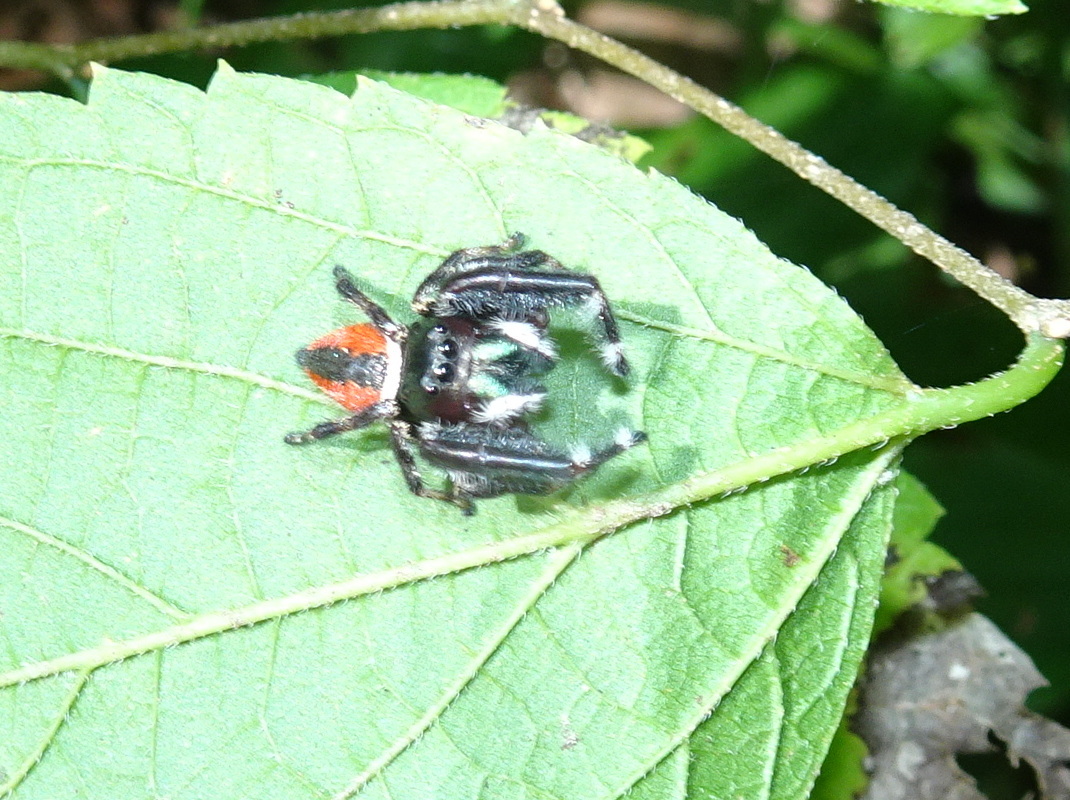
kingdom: Animalia
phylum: Arthropoda
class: Arachnida
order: Araneae
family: Salticidae
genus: Phidippus
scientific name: Phidippus clarus
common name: Brilliant jumping spider
